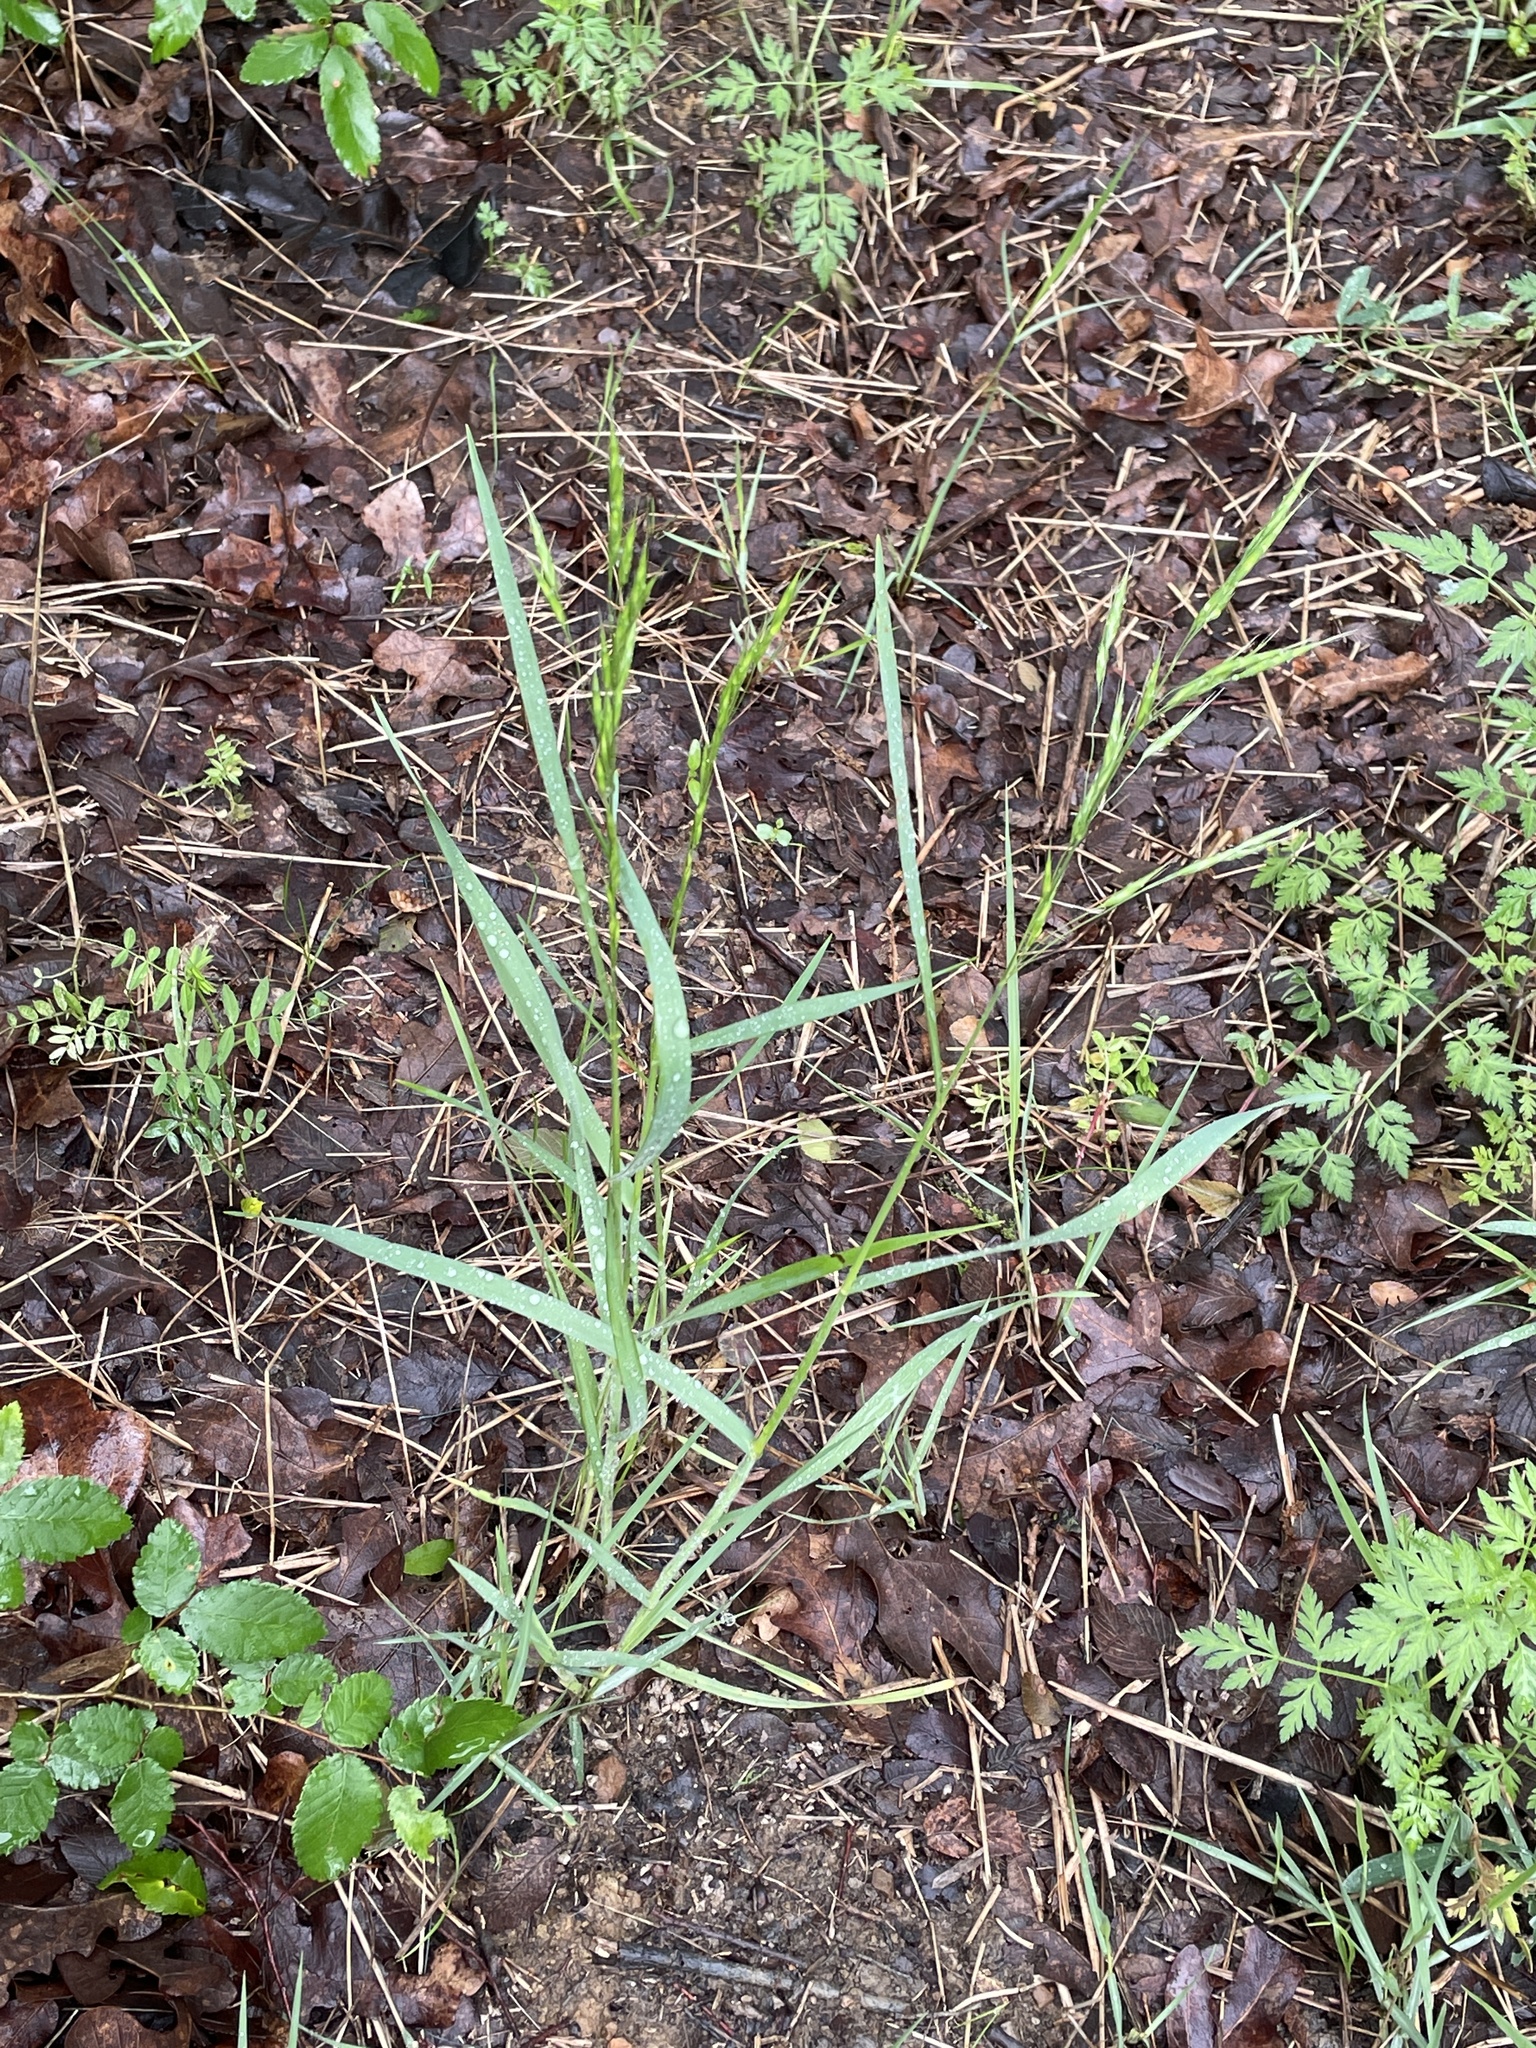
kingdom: Plantae
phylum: Tracheophyta
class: Liliopsida
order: Poales
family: Poaceae
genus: Bromus
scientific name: Bromus japonicus
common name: Japanese brome
